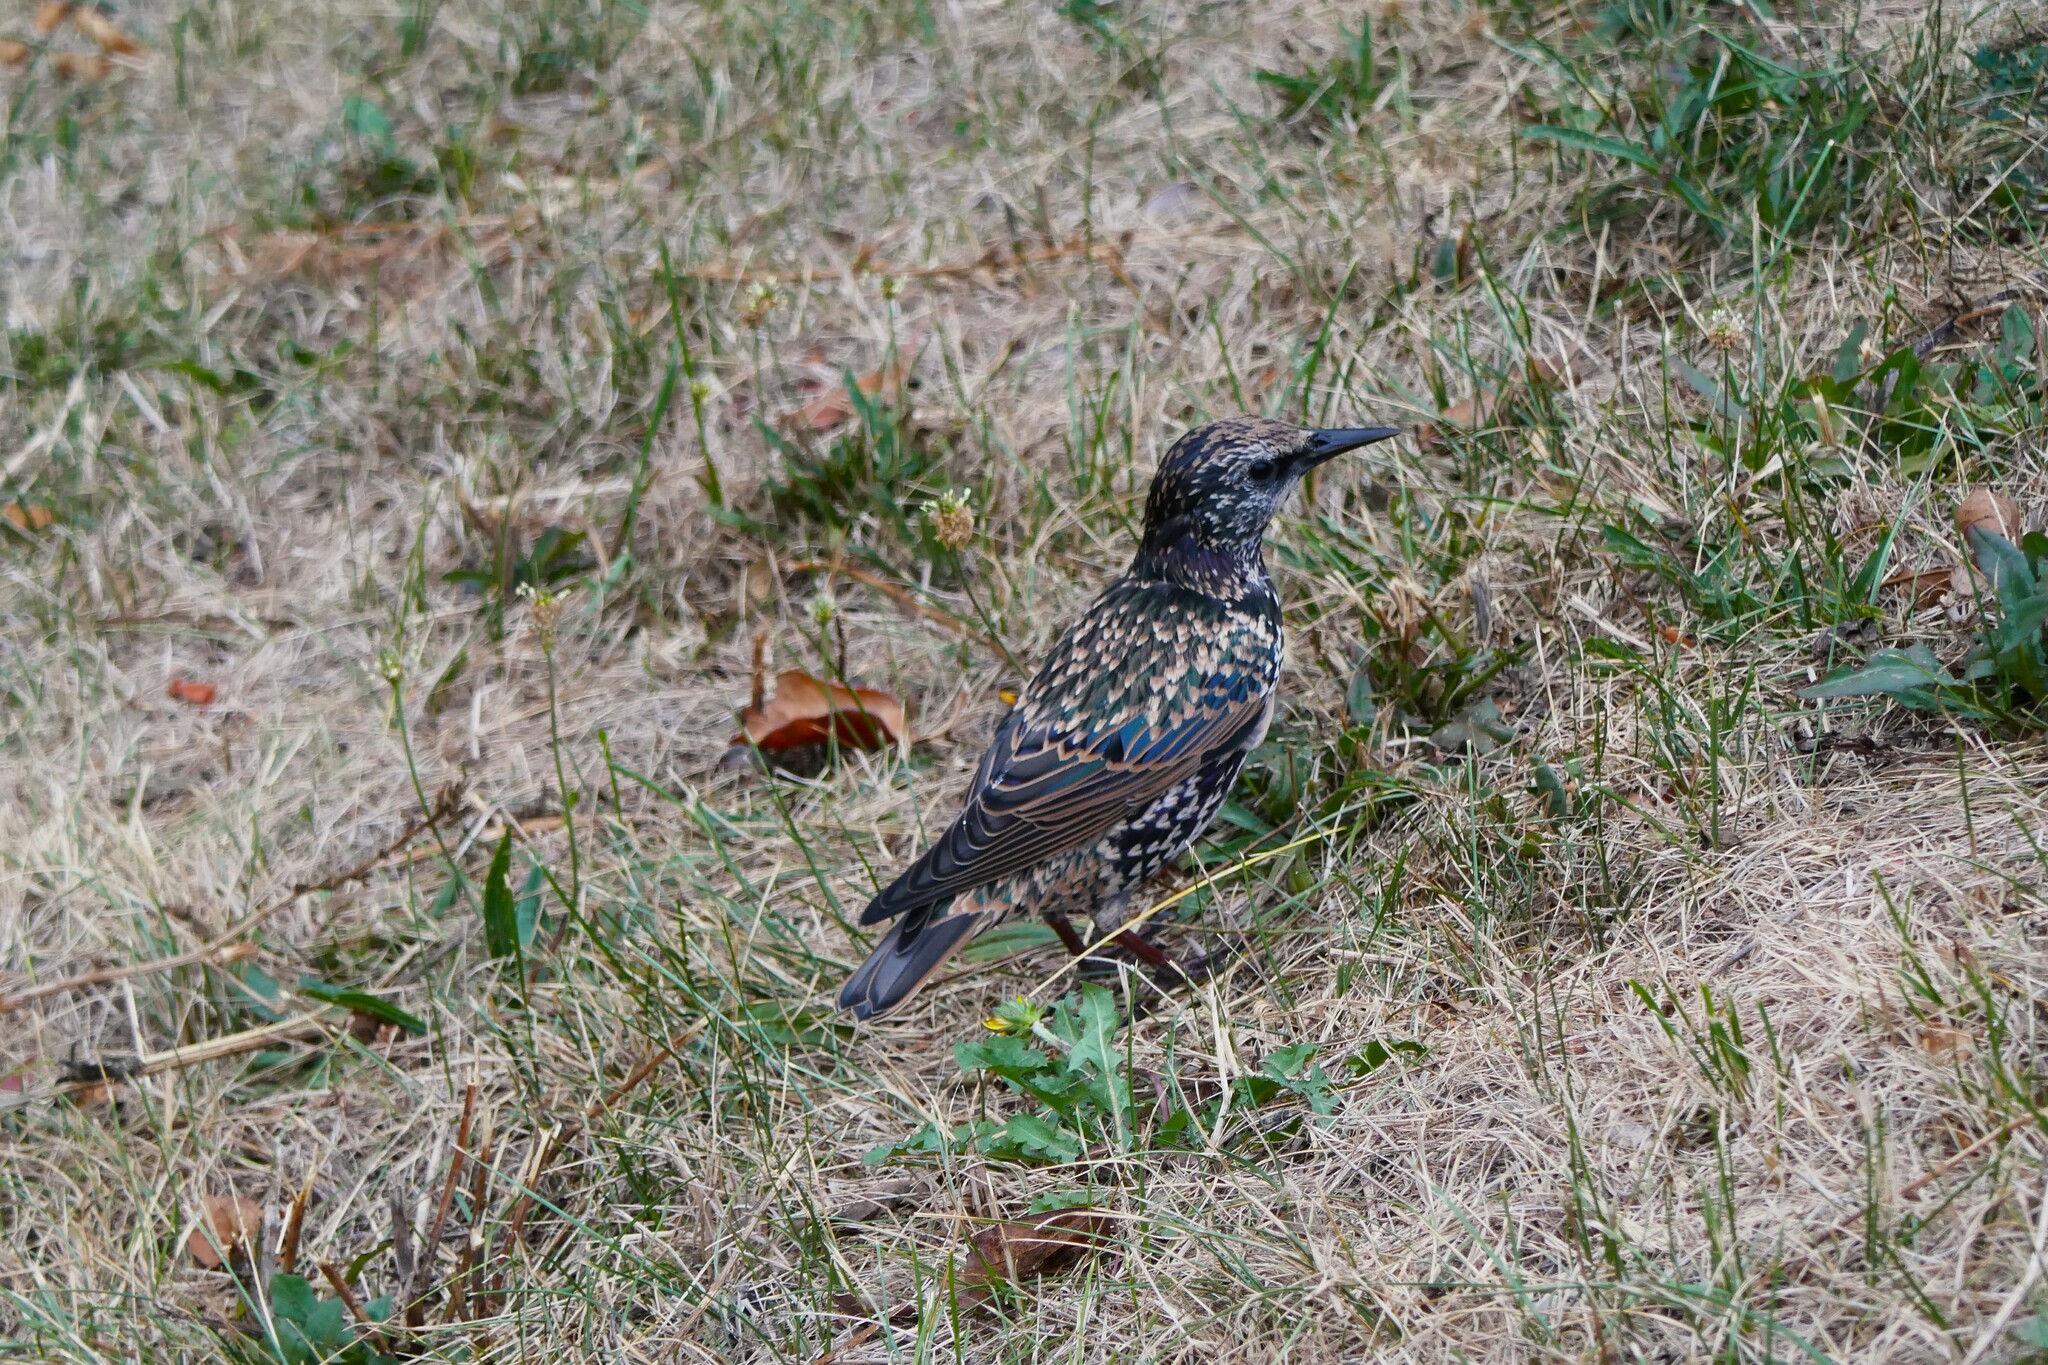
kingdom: Animalia
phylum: Chordata
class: Aves
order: Passeriformes
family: Sturnidae
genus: Sturnus
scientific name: Sturnus vulgaris
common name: Common starling
